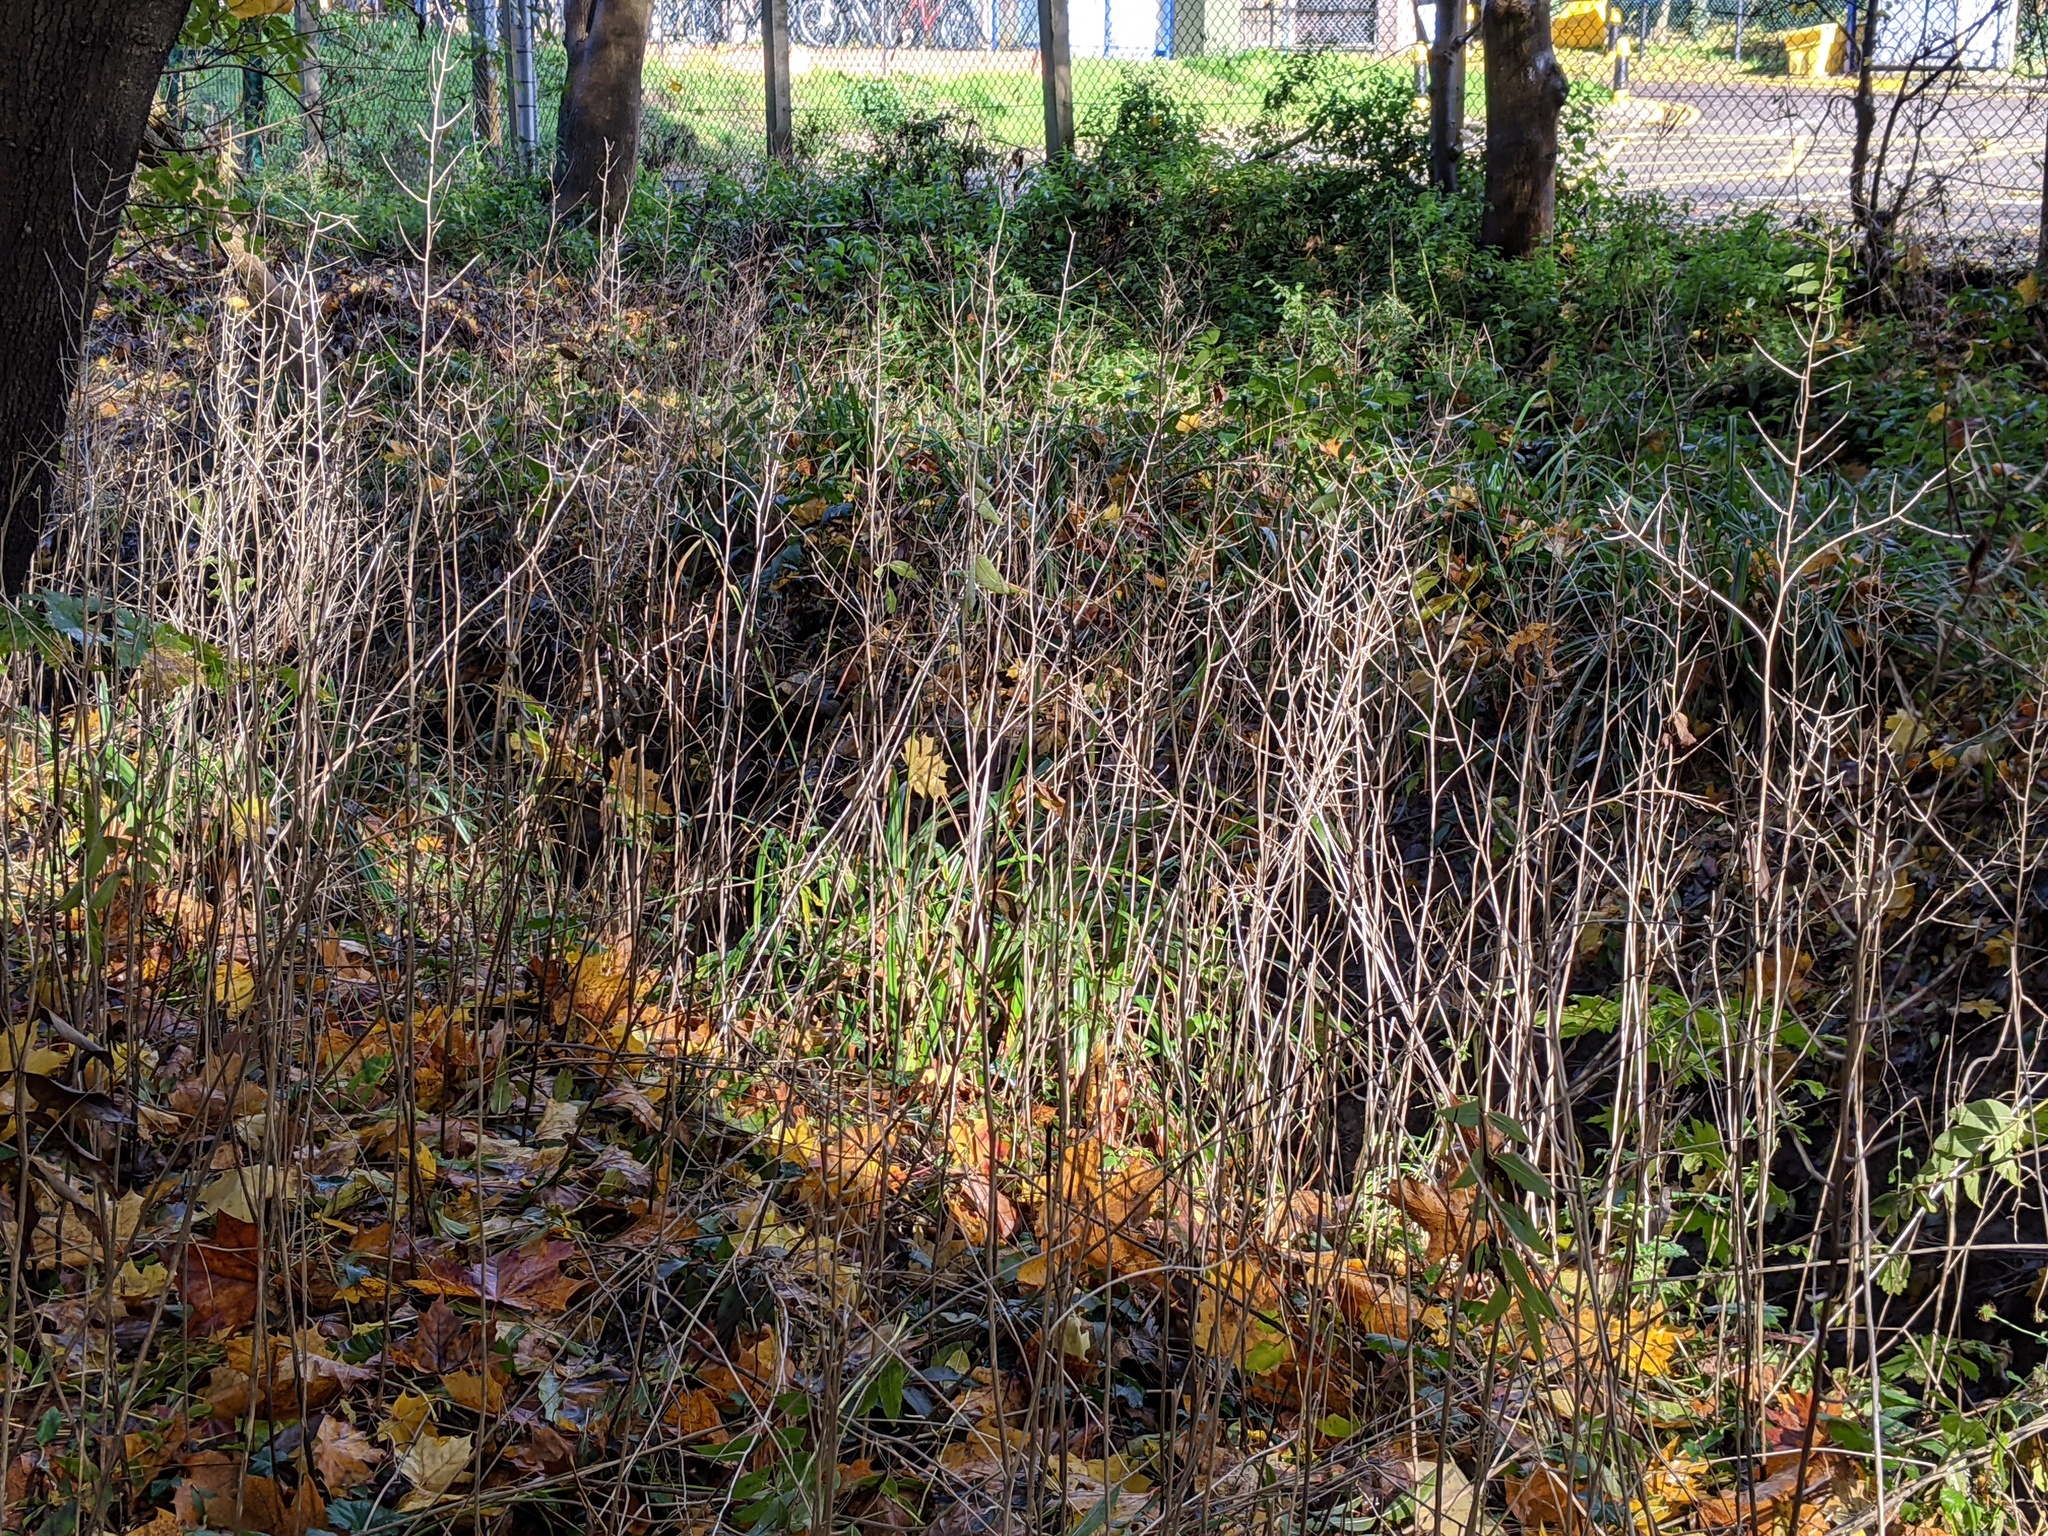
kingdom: Plantae
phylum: Tracheophyta
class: Magnoliopsida
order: Brassicales
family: Brassicaceae
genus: Alliaria
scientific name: Alliaria petiolata
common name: Garlic mustard
